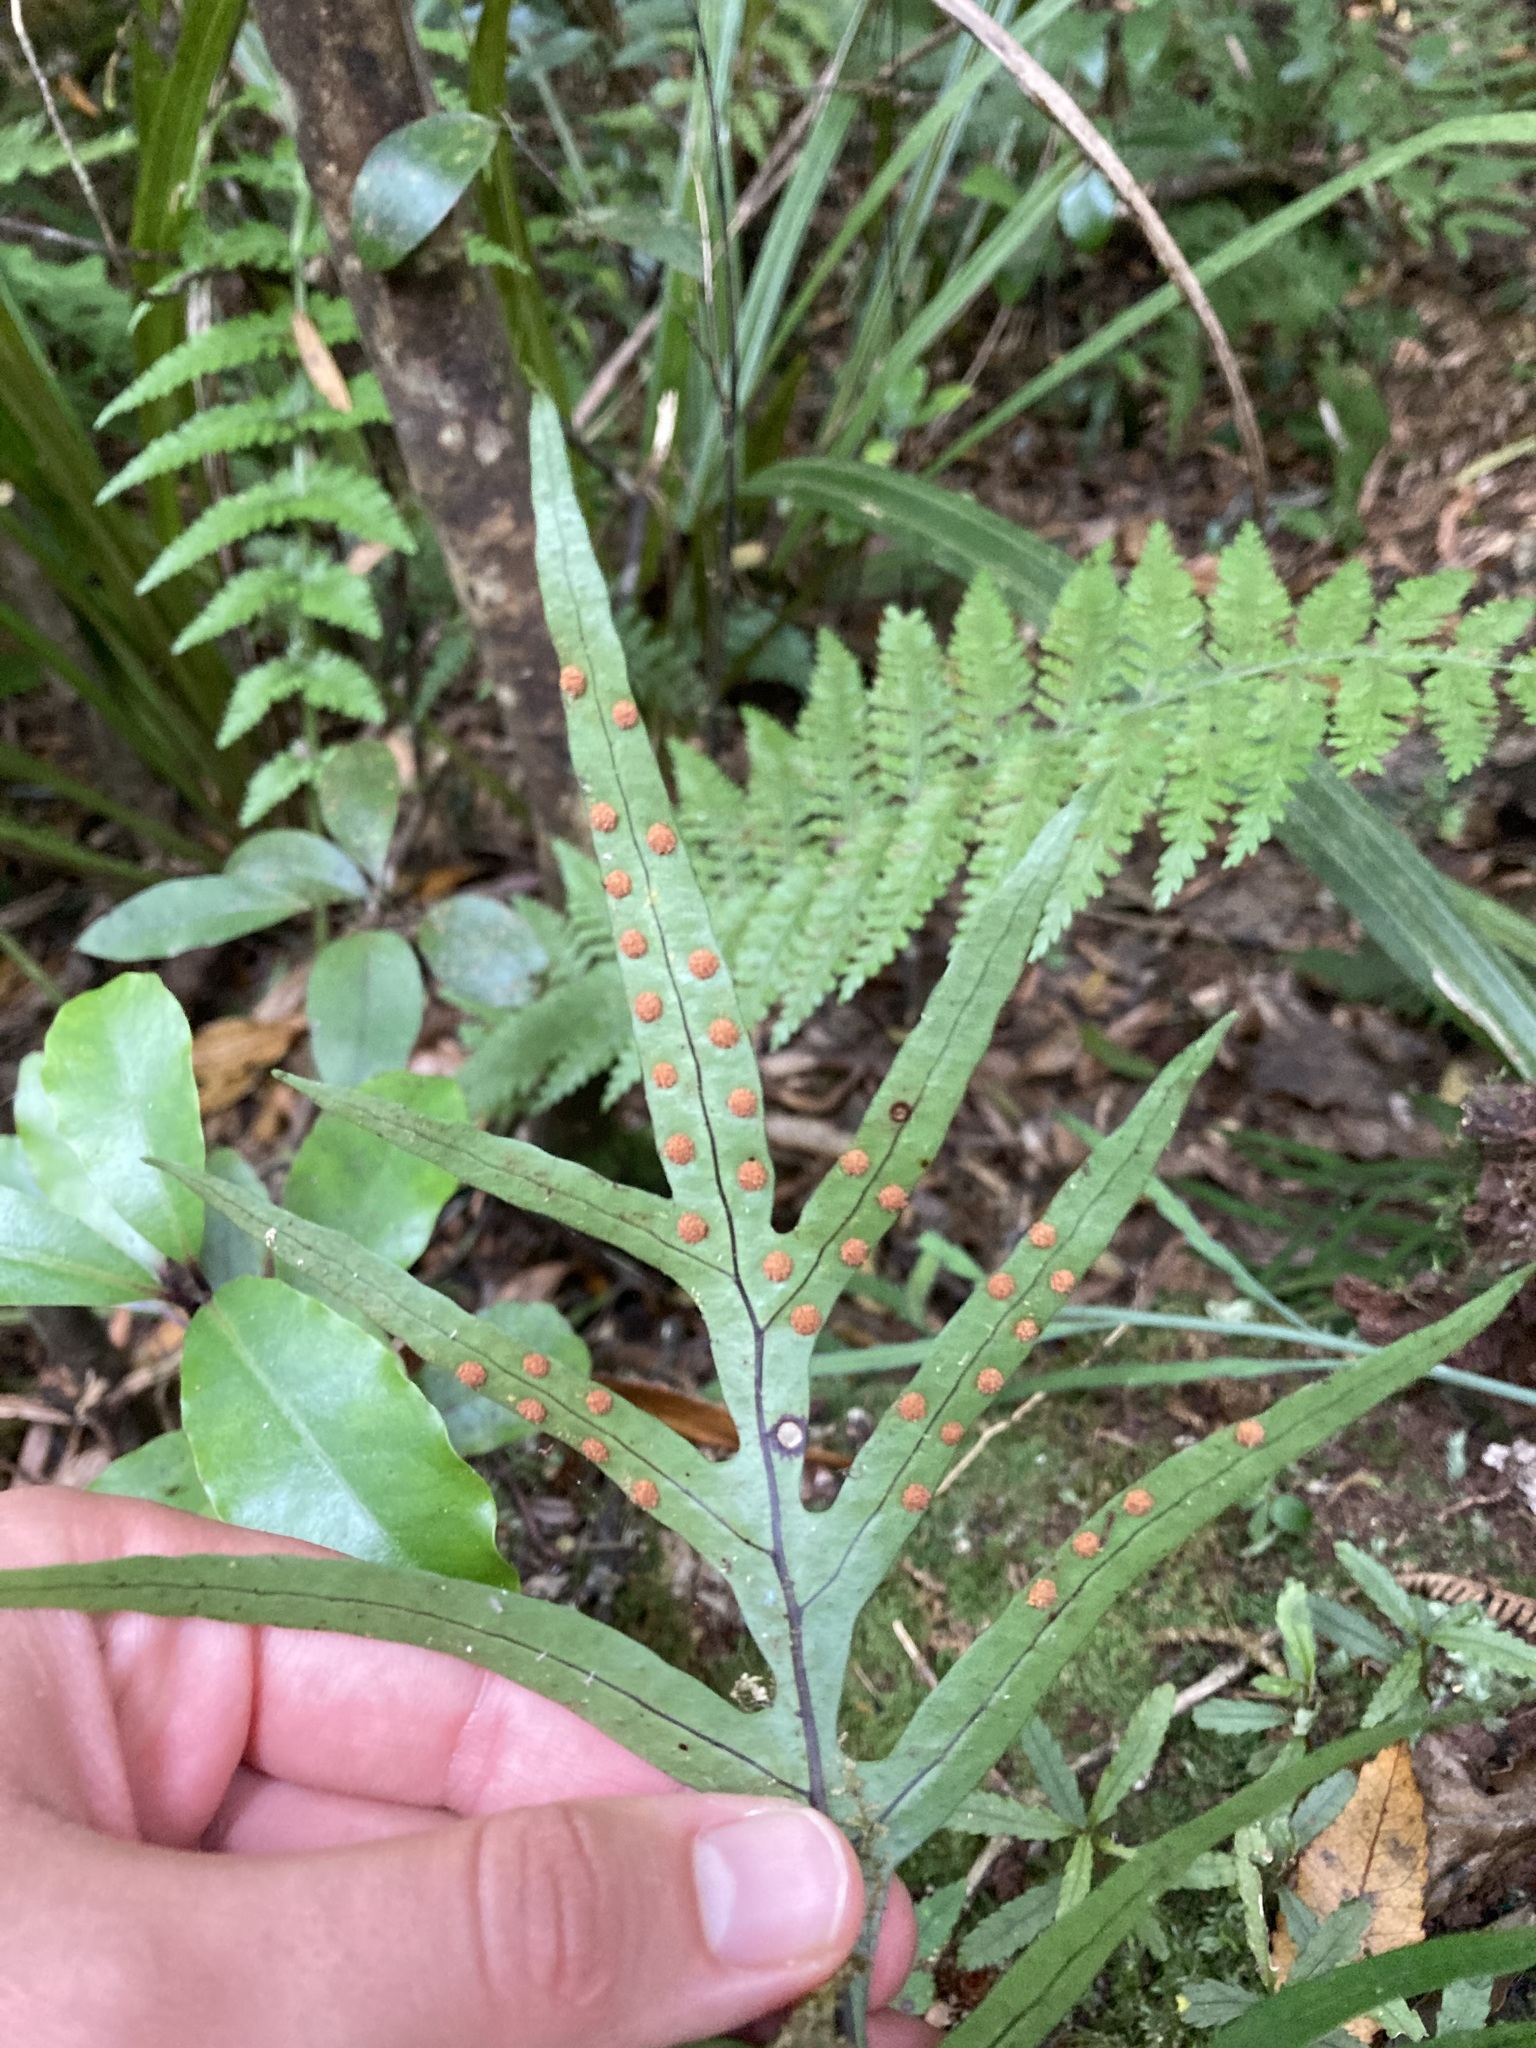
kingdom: Plantae
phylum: Tracheophyta
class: Polypodiopsida
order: Polypodiales
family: Polypodiaceae
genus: Lecanopteris
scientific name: Lecanopteris novae-zealandiae
